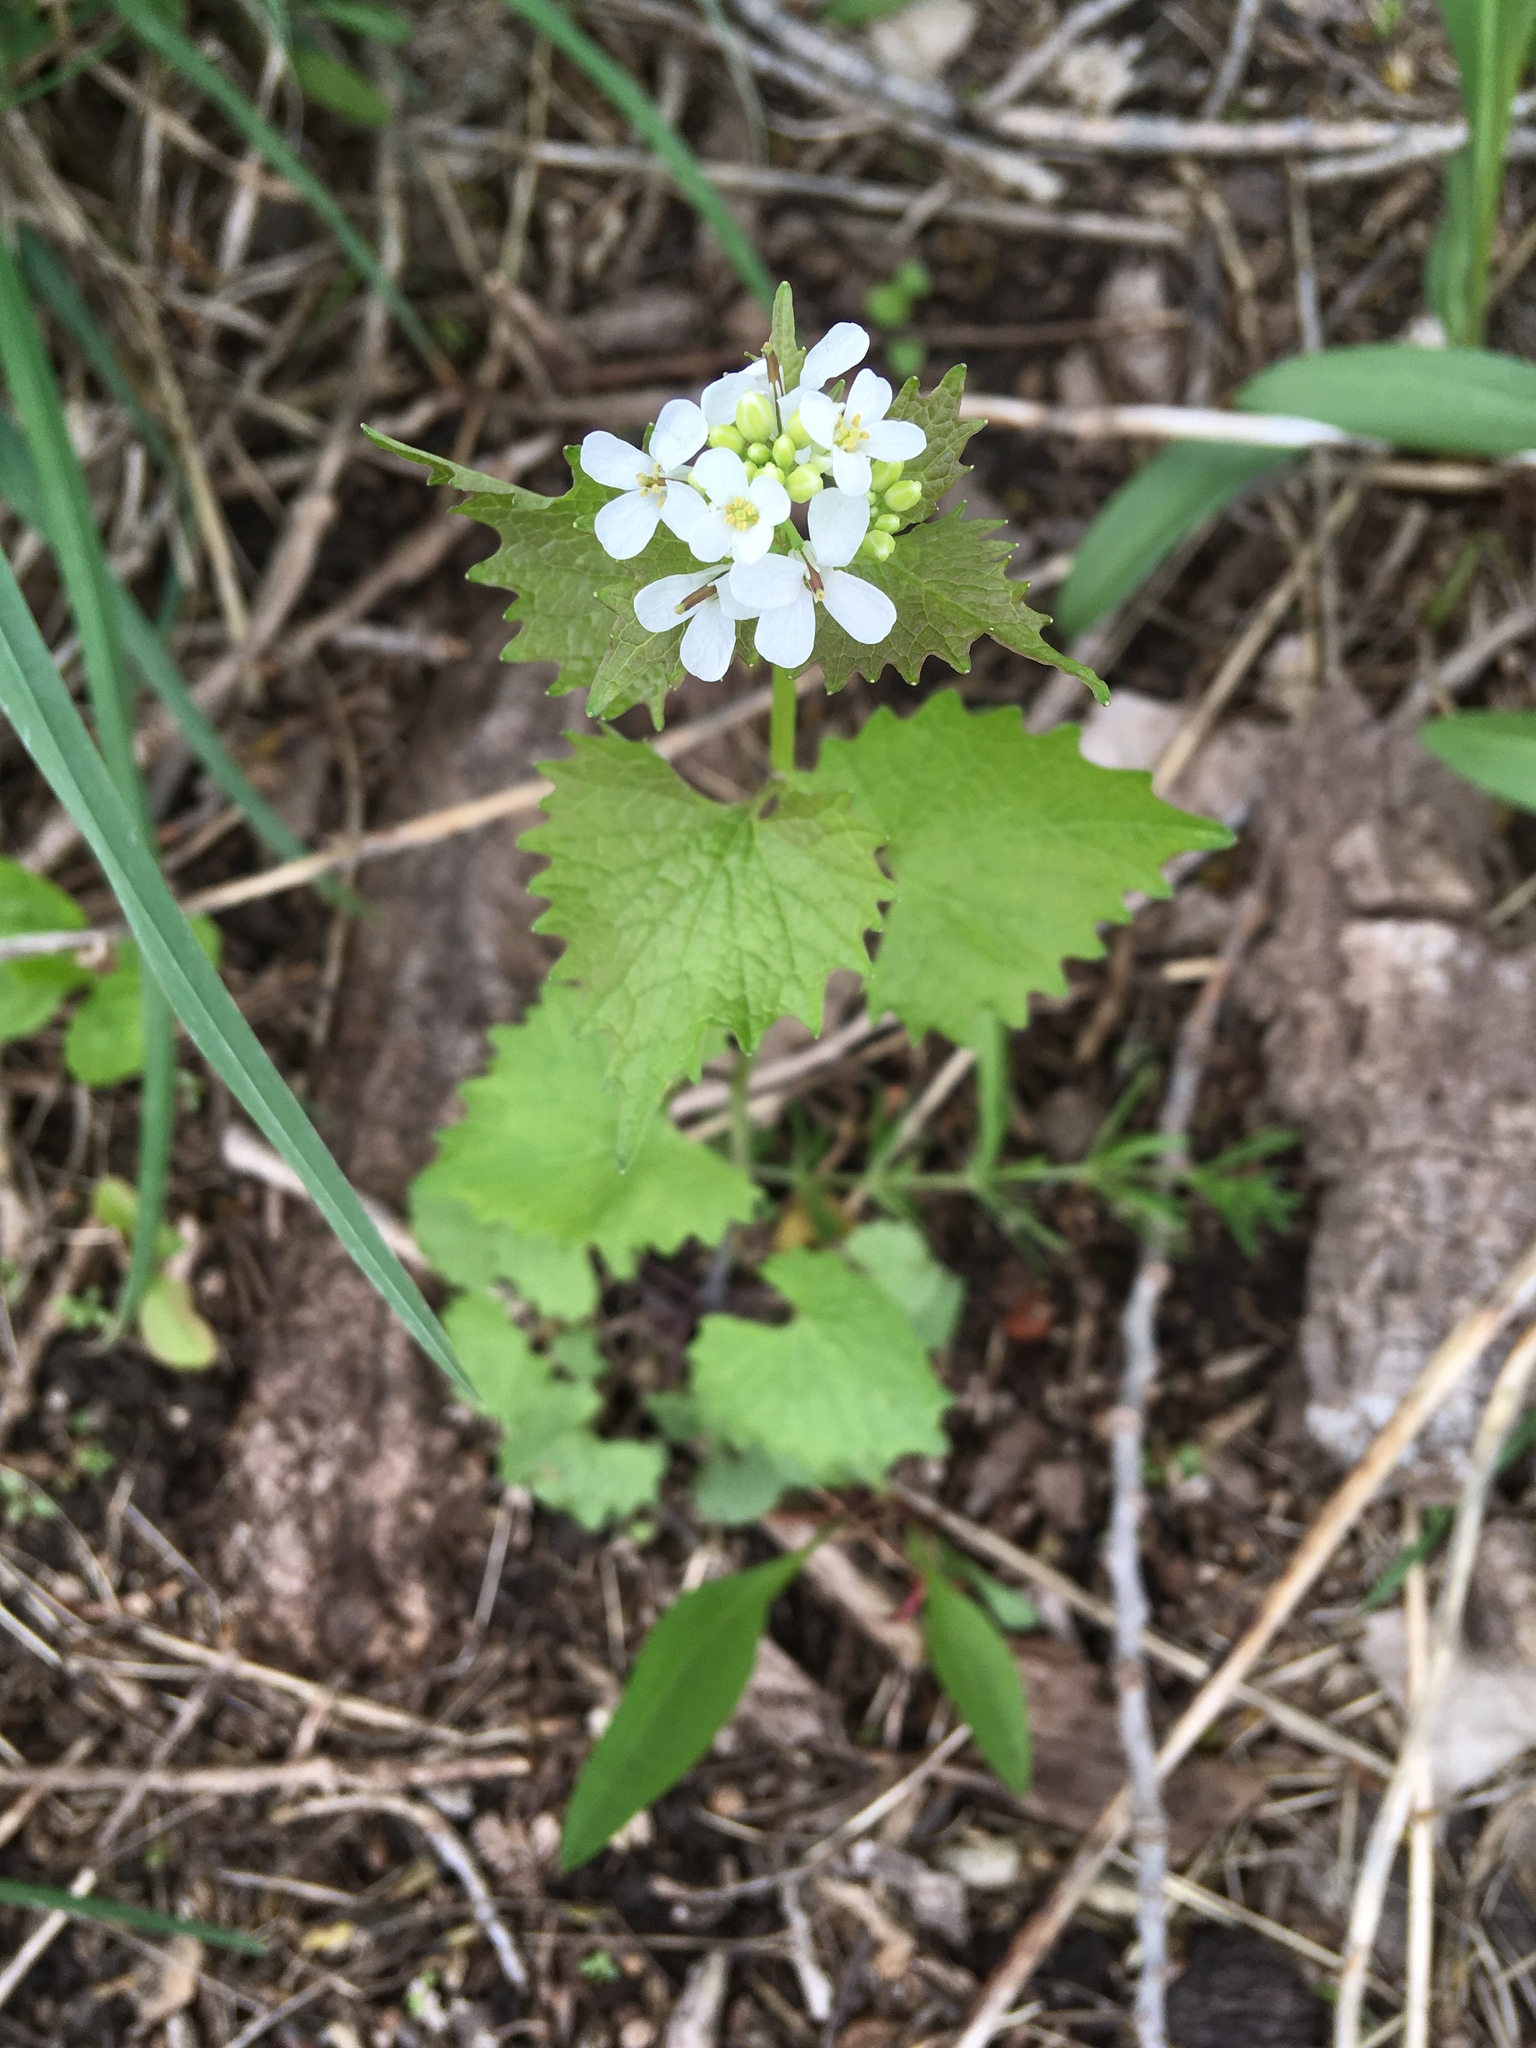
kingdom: Plantae
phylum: Tracheophyta
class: Magnoliopsida
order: Brassicales
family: Brassicaceae
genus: Alliaria
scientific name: Alliaria petiolata
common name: Garlic mustard
